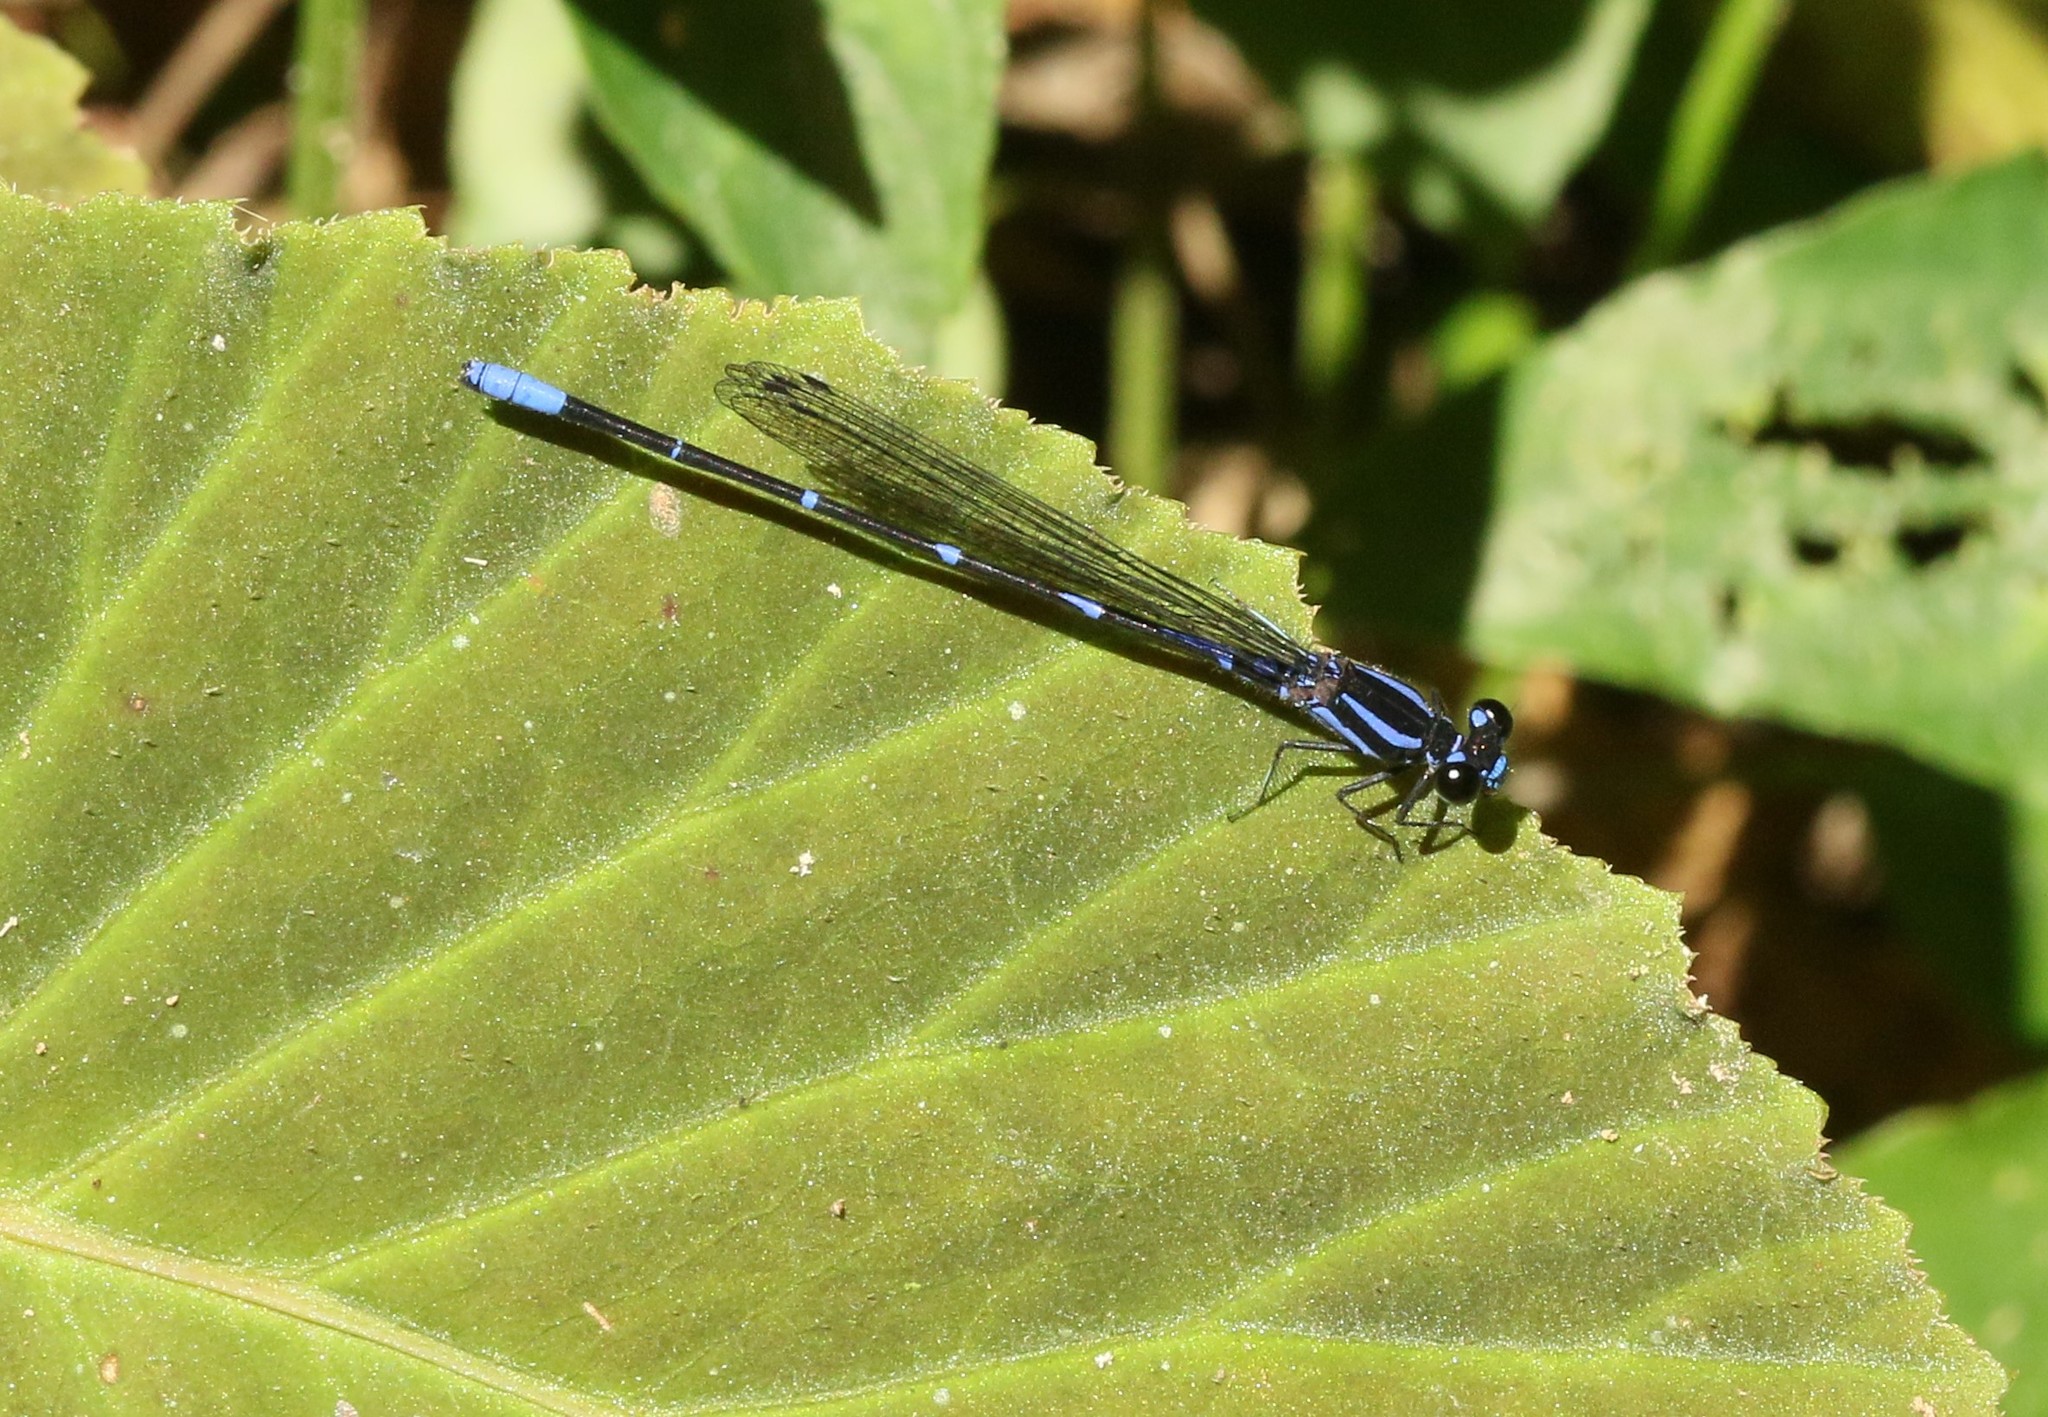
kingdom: Animalia
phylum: Arthropoda
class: Insecta
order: Odonata
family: Coenagrionidae
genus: Argia
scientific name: Argia oculata
